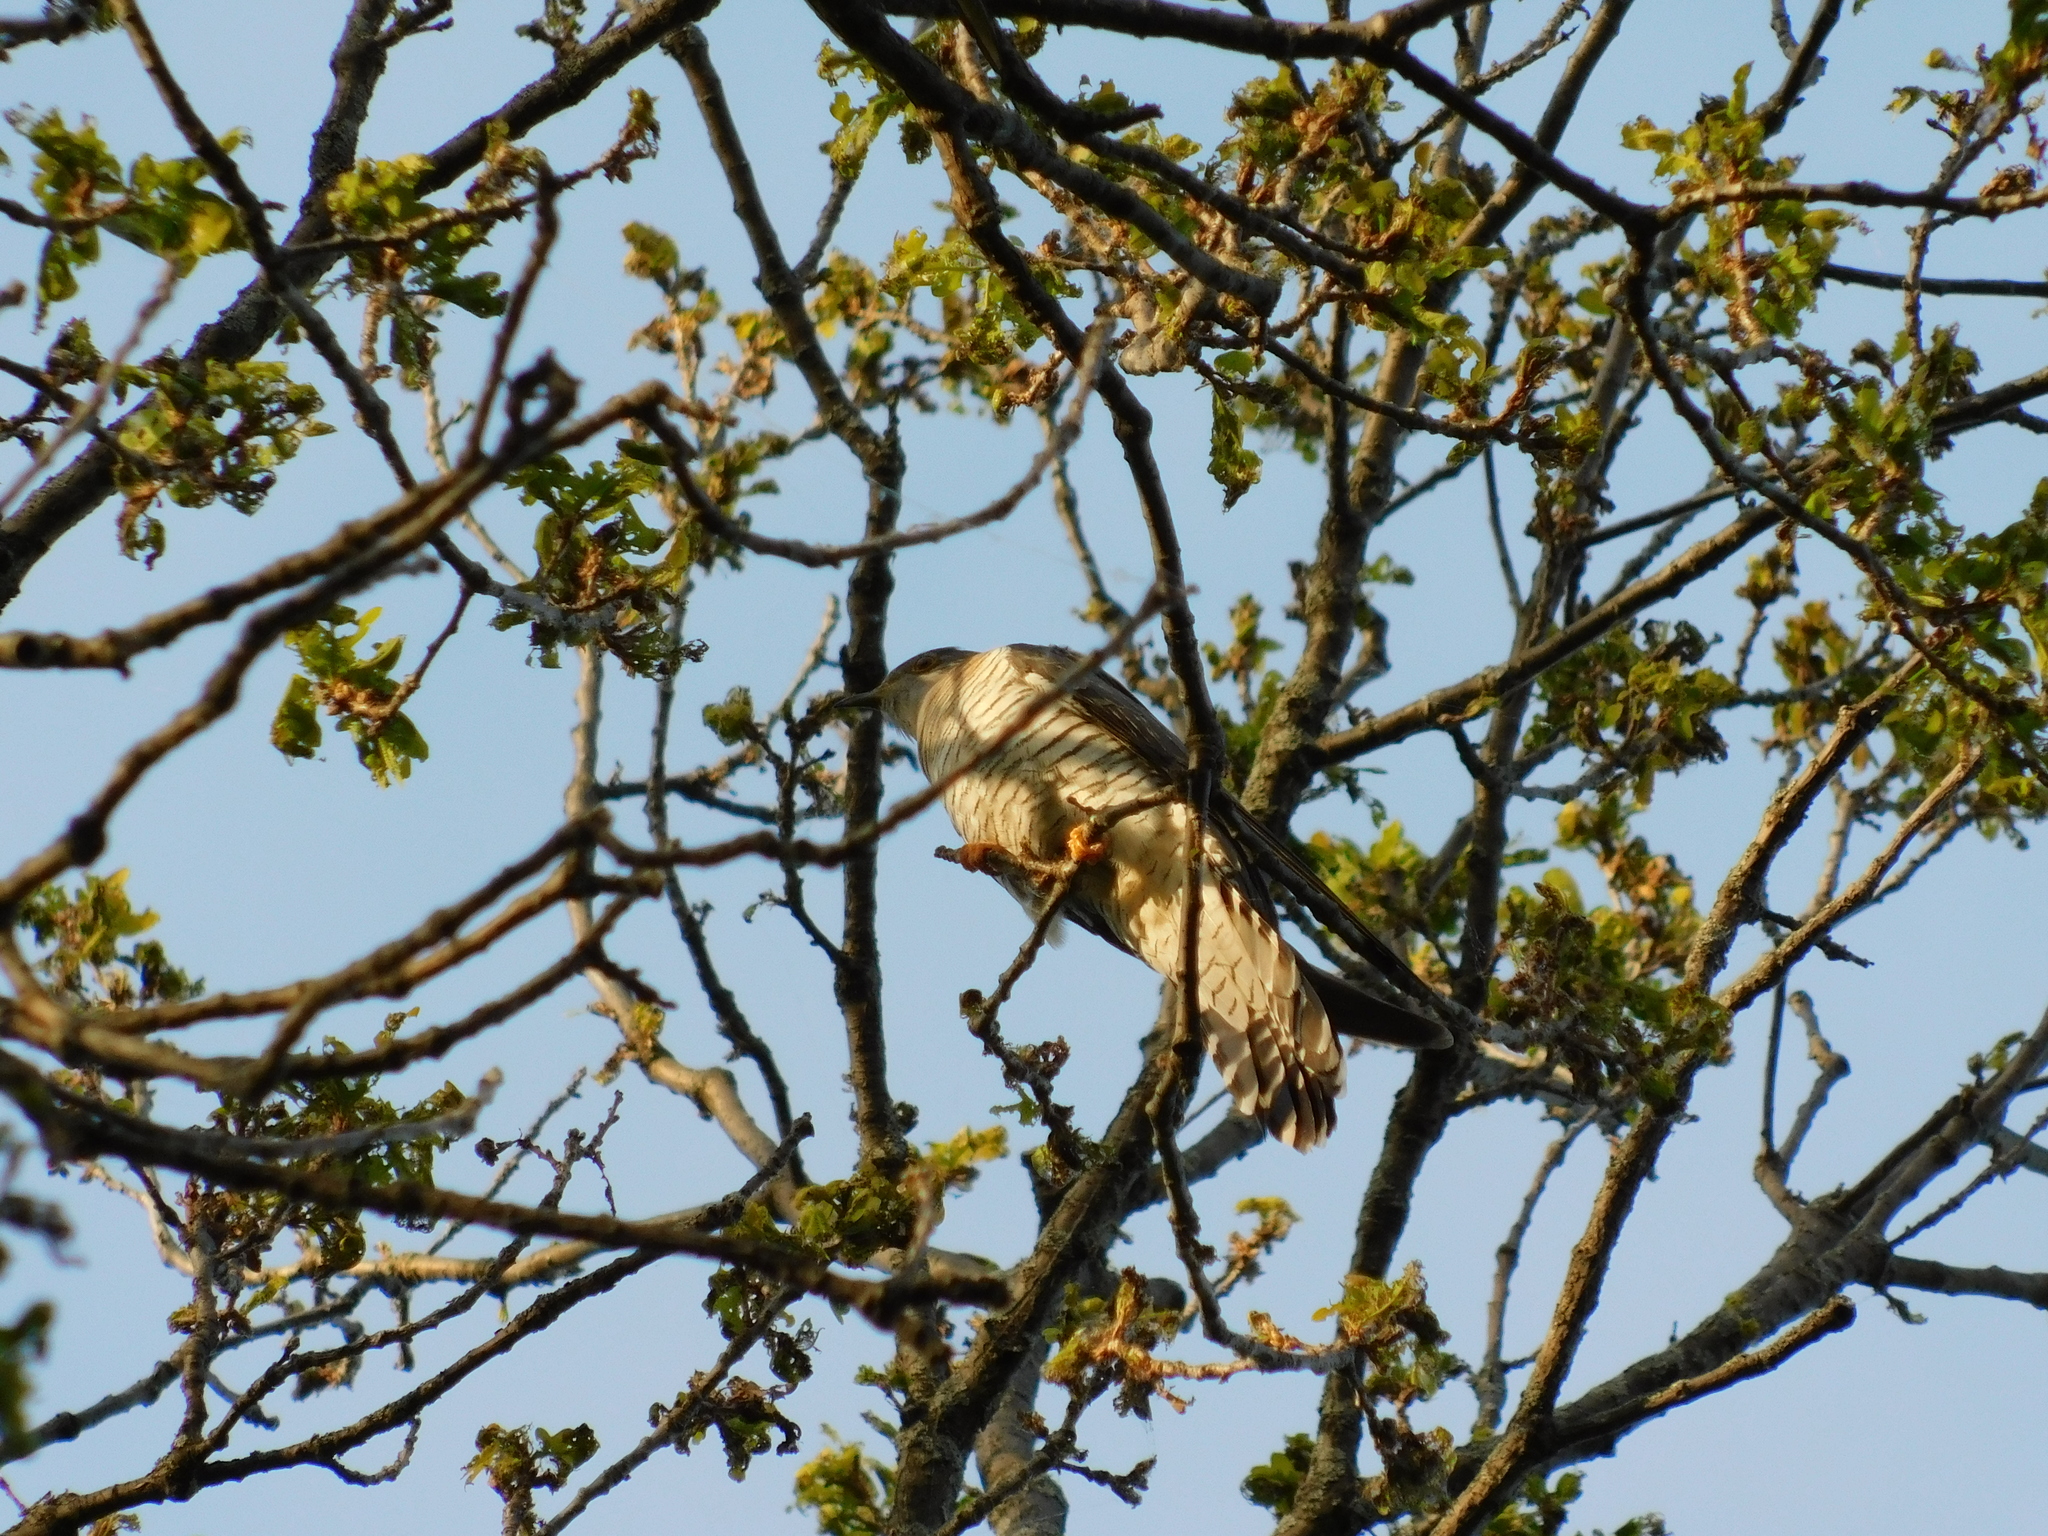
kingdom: Animalia
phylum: Chordata
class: Aves
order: Cuculiformes
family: Cuculidae
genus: Cuculus
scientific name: Cuculus canorus
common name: Common cuckoo
